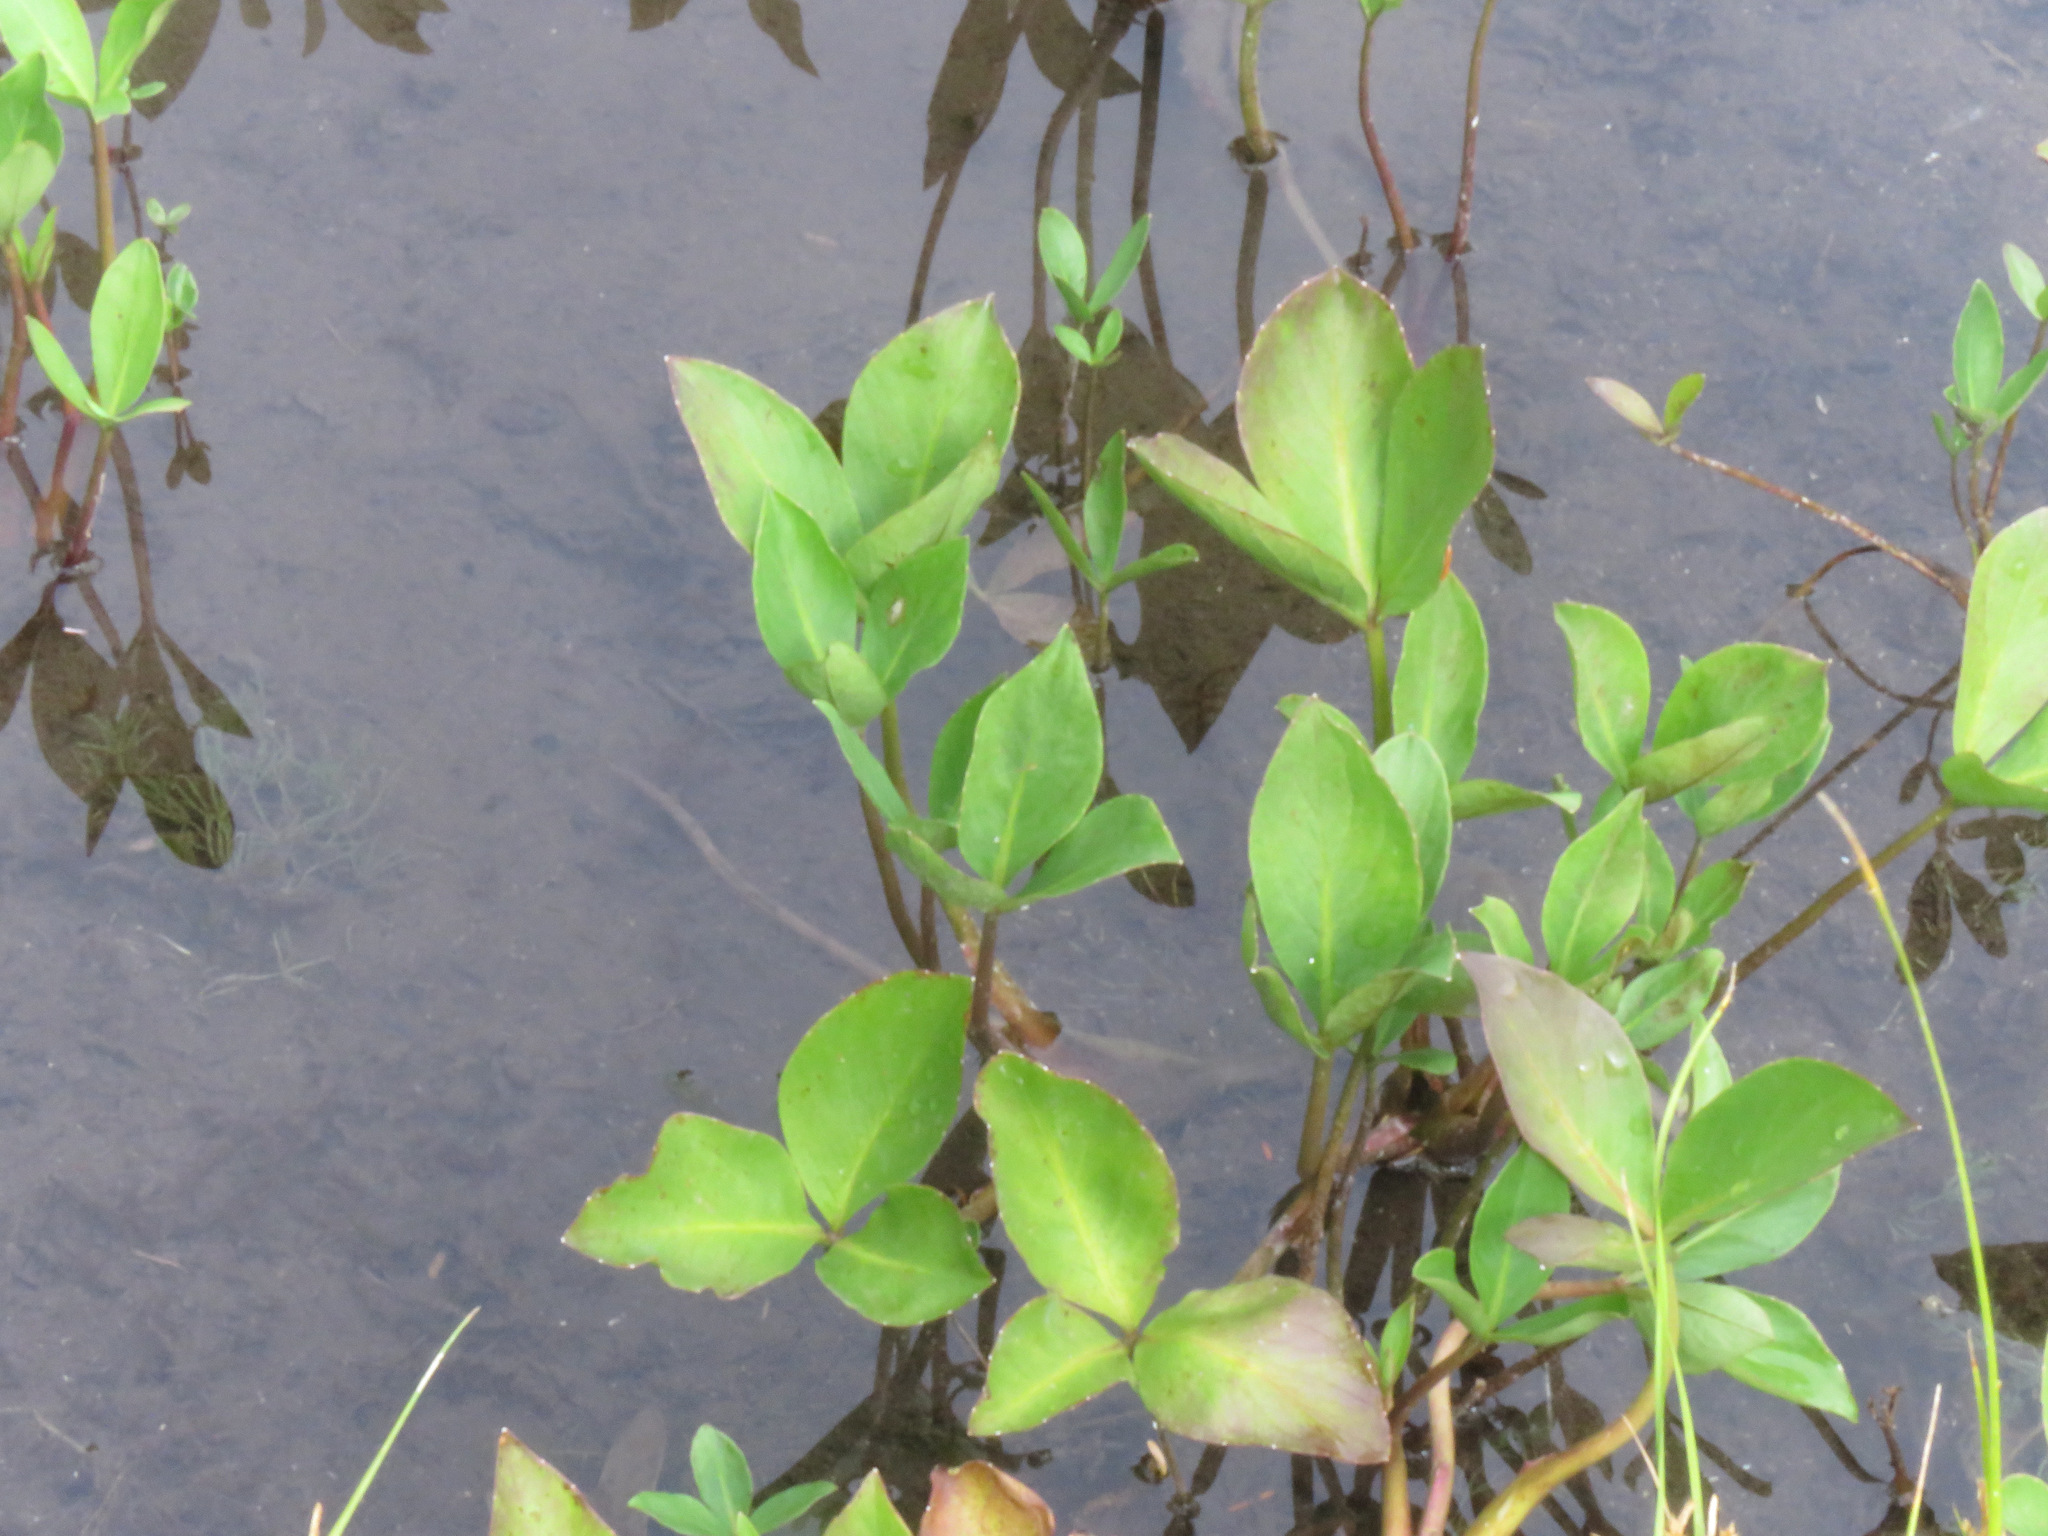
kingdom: Plantae
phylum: Tracheophyta
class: Magnoliopsida
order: Asterales
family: Menyanthaceae
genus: Menyanthes
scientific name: Menyanthes trifoliata
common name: Bogbean
